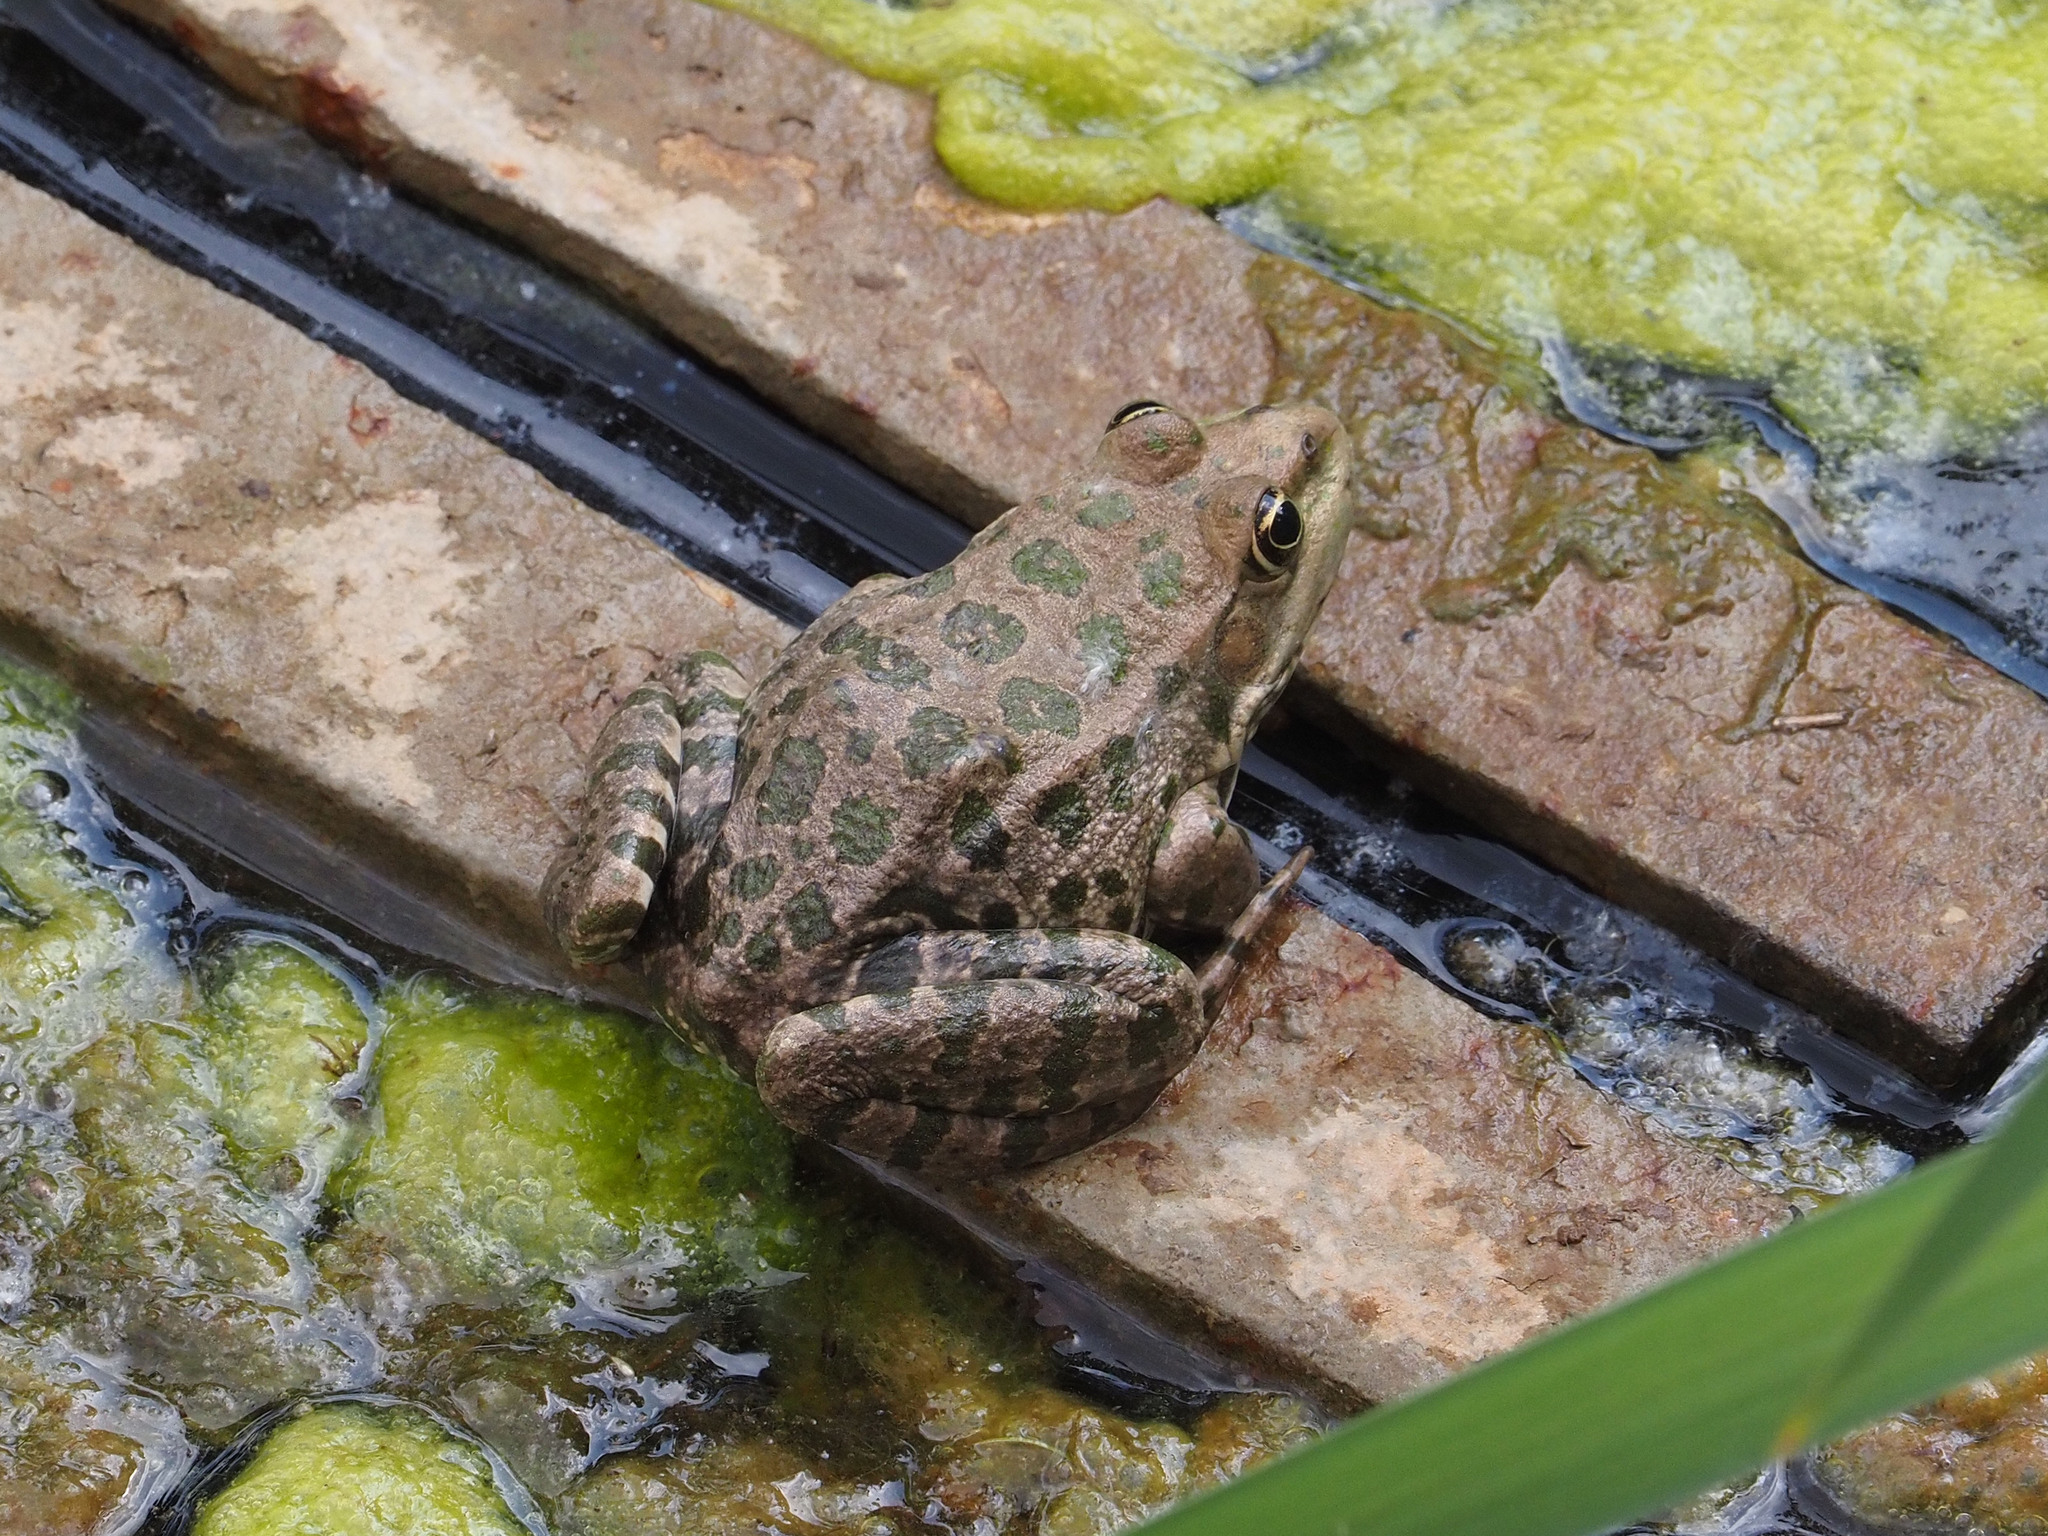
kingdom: Animalia
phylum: Chordata
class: Amphibia
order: Anura
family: Ranidae
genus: Pelophylax
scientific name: Pelophylax ridibundus
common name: Marsh frog
